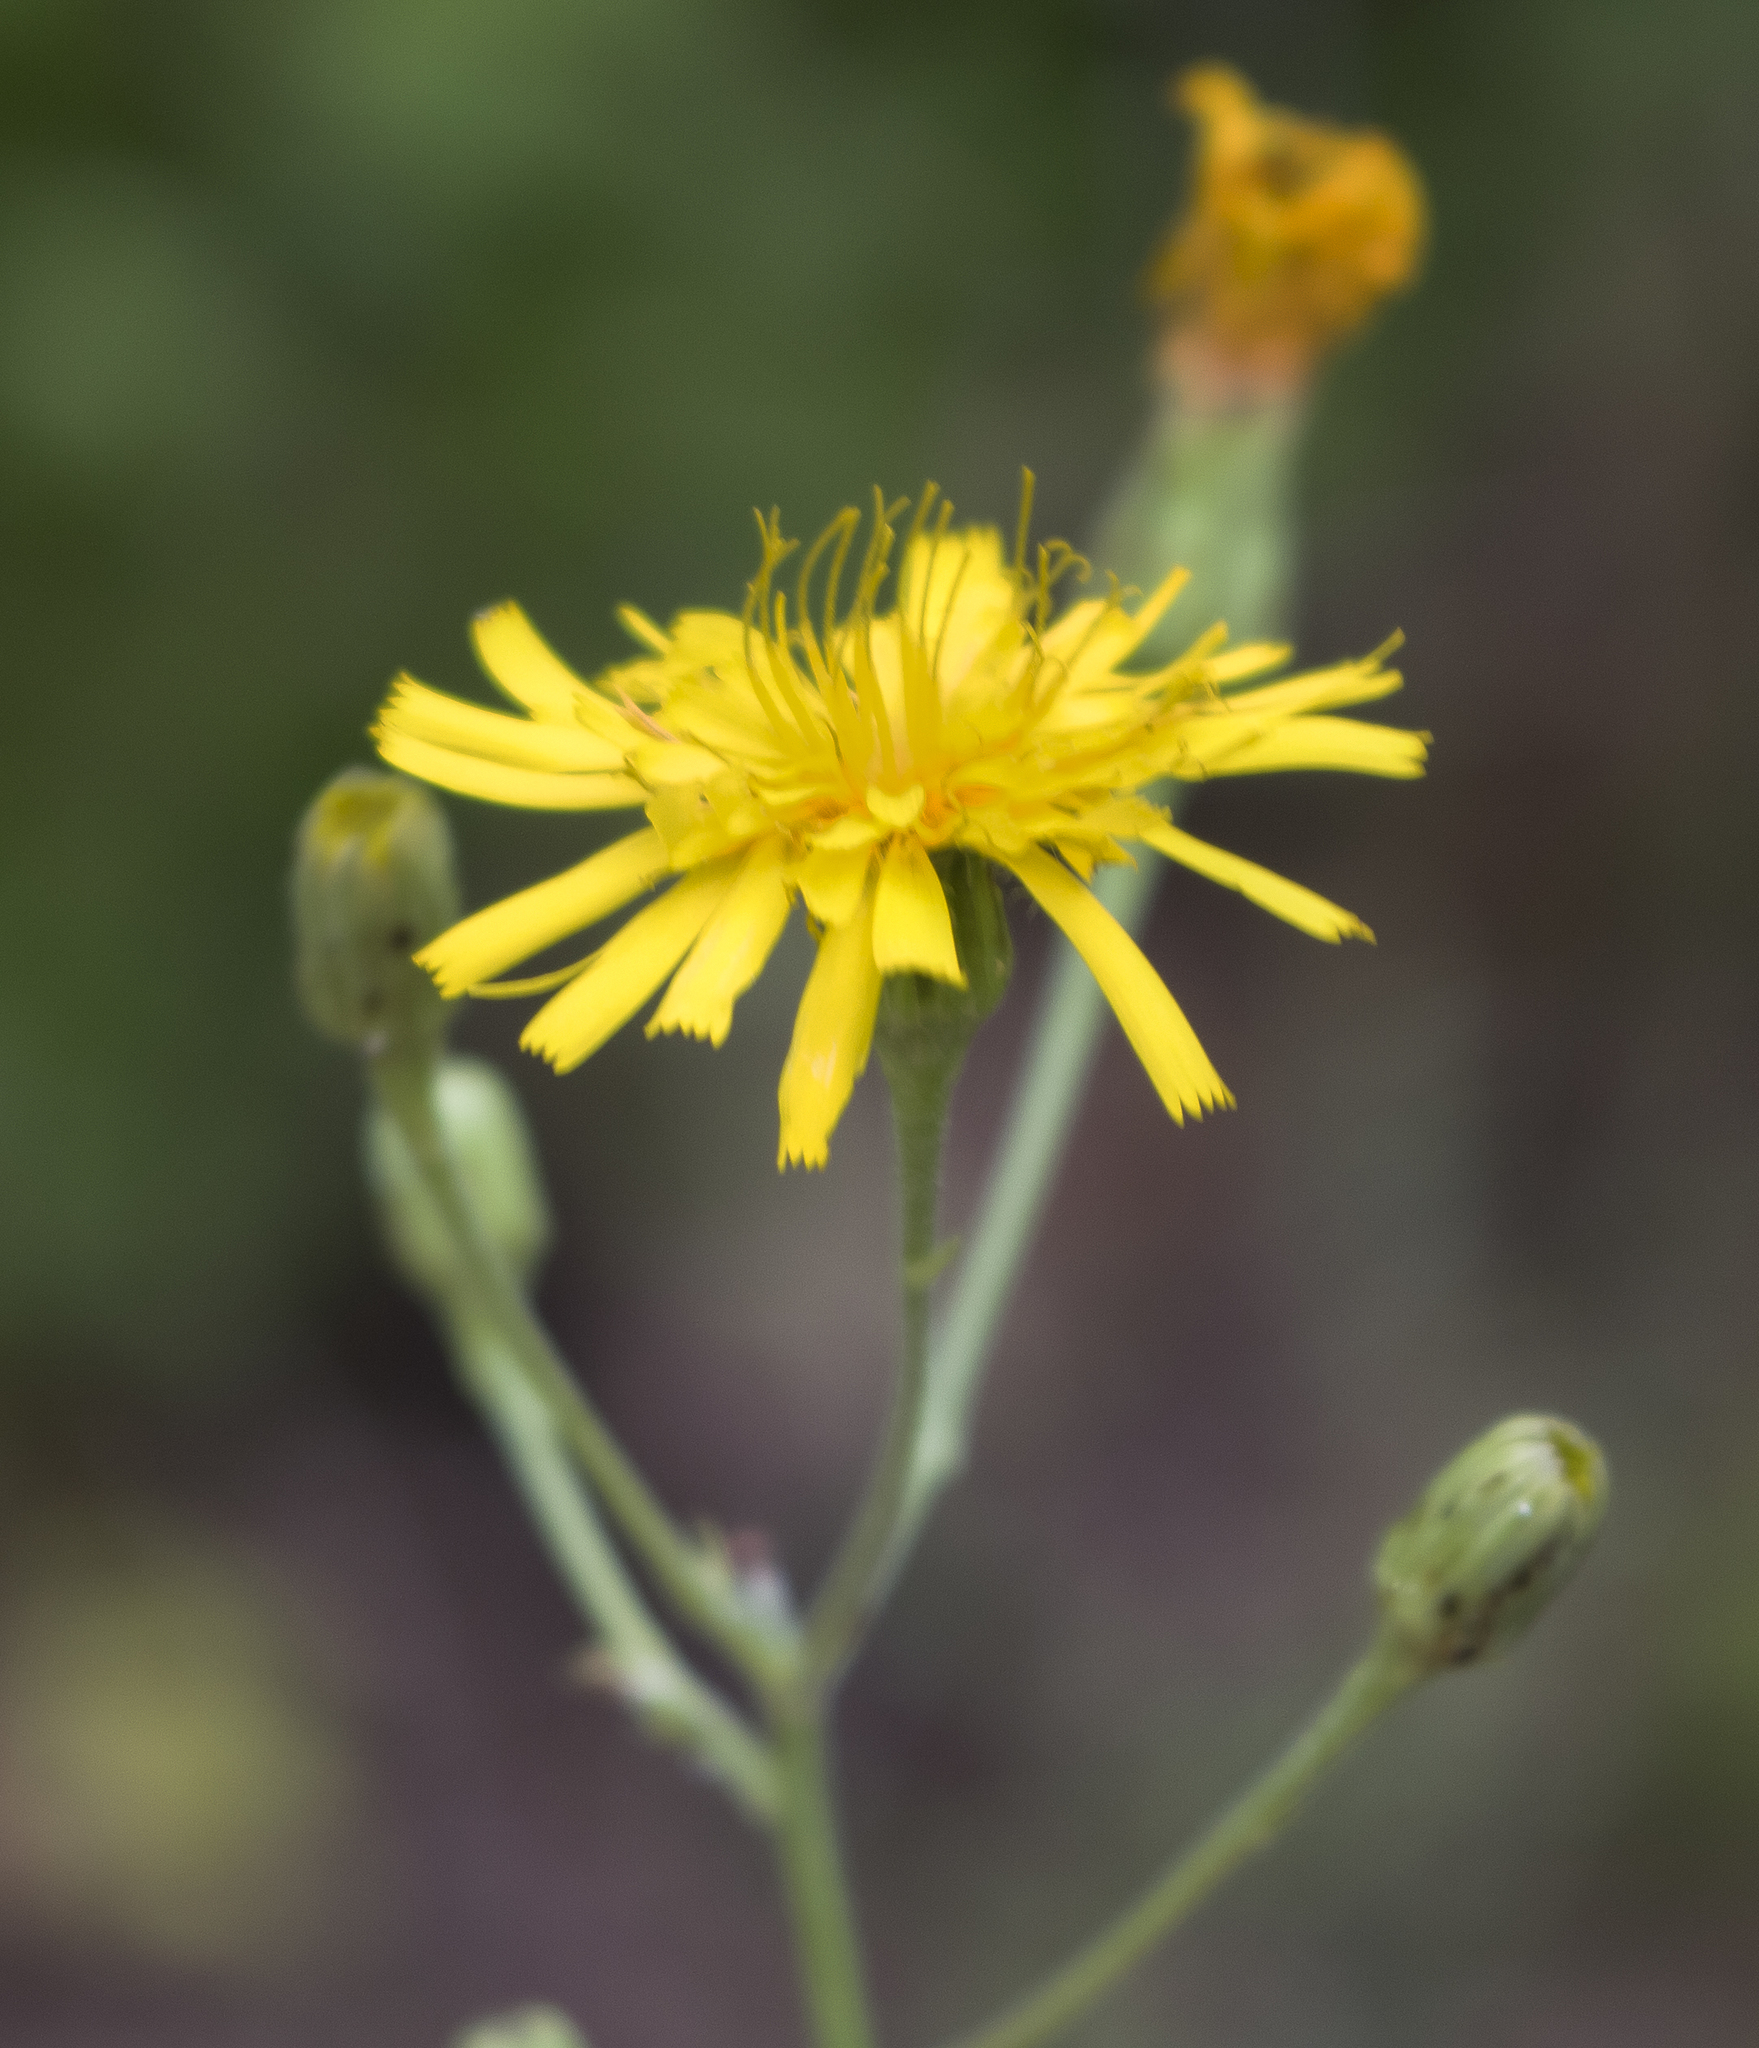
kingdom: Plantae
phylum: Tracheophyta
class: Magnoliopsida
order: Asterales
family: Asteraceae
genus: Hieracium
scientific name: Hieracium umbellatum
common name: Northern hawkweed
